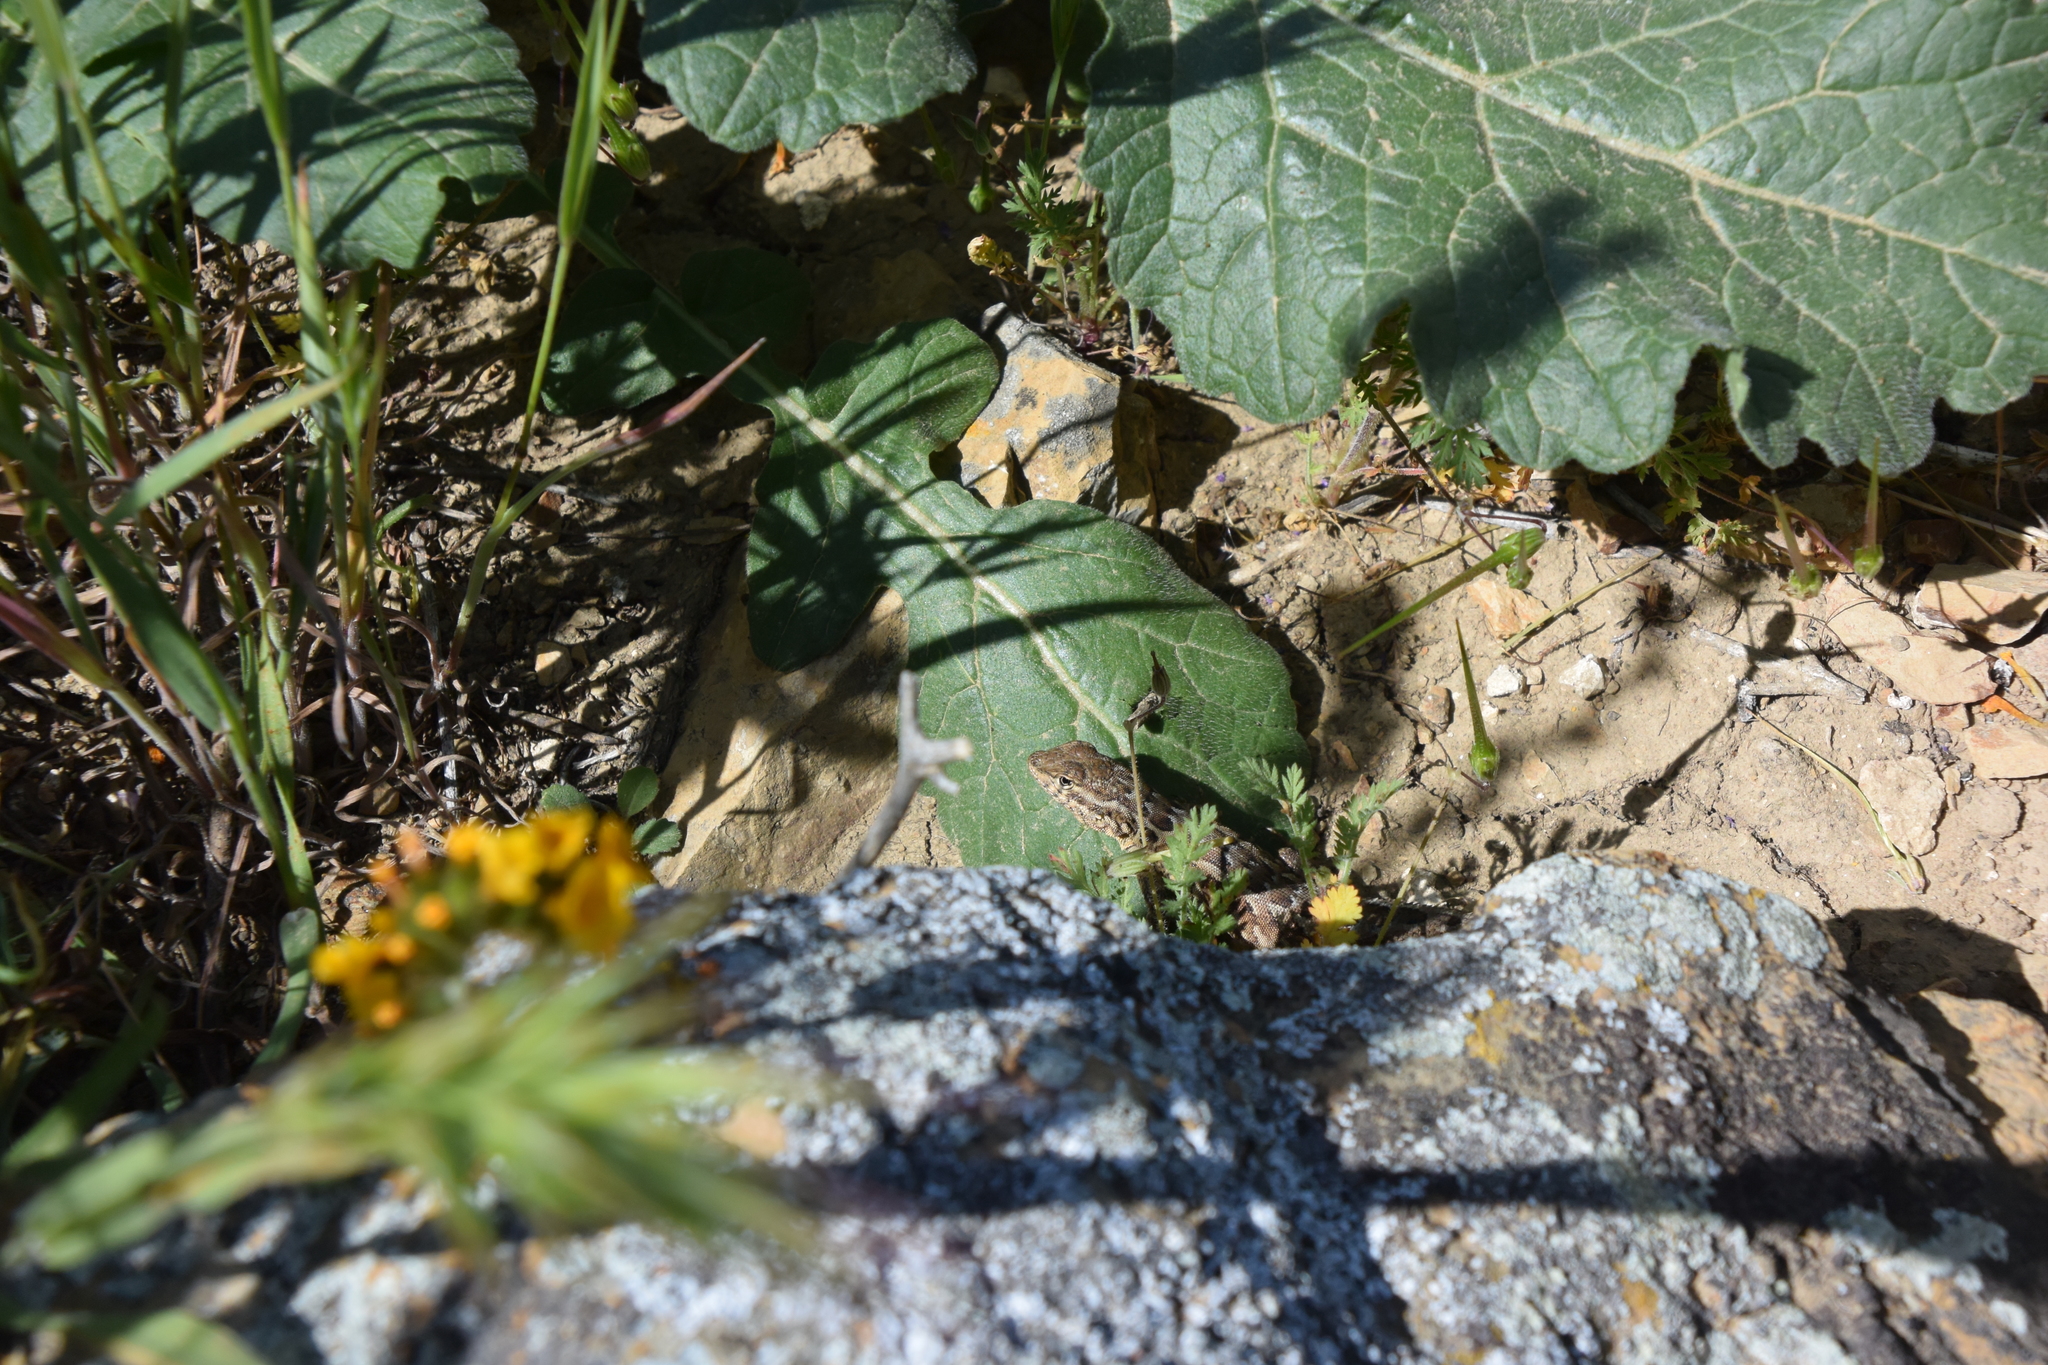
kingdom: Animalia
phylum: Chordata
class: Squamata
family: Phrynosomatidae
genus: Uta
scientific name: Uta stansburiana
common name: Side-blotched lizard
